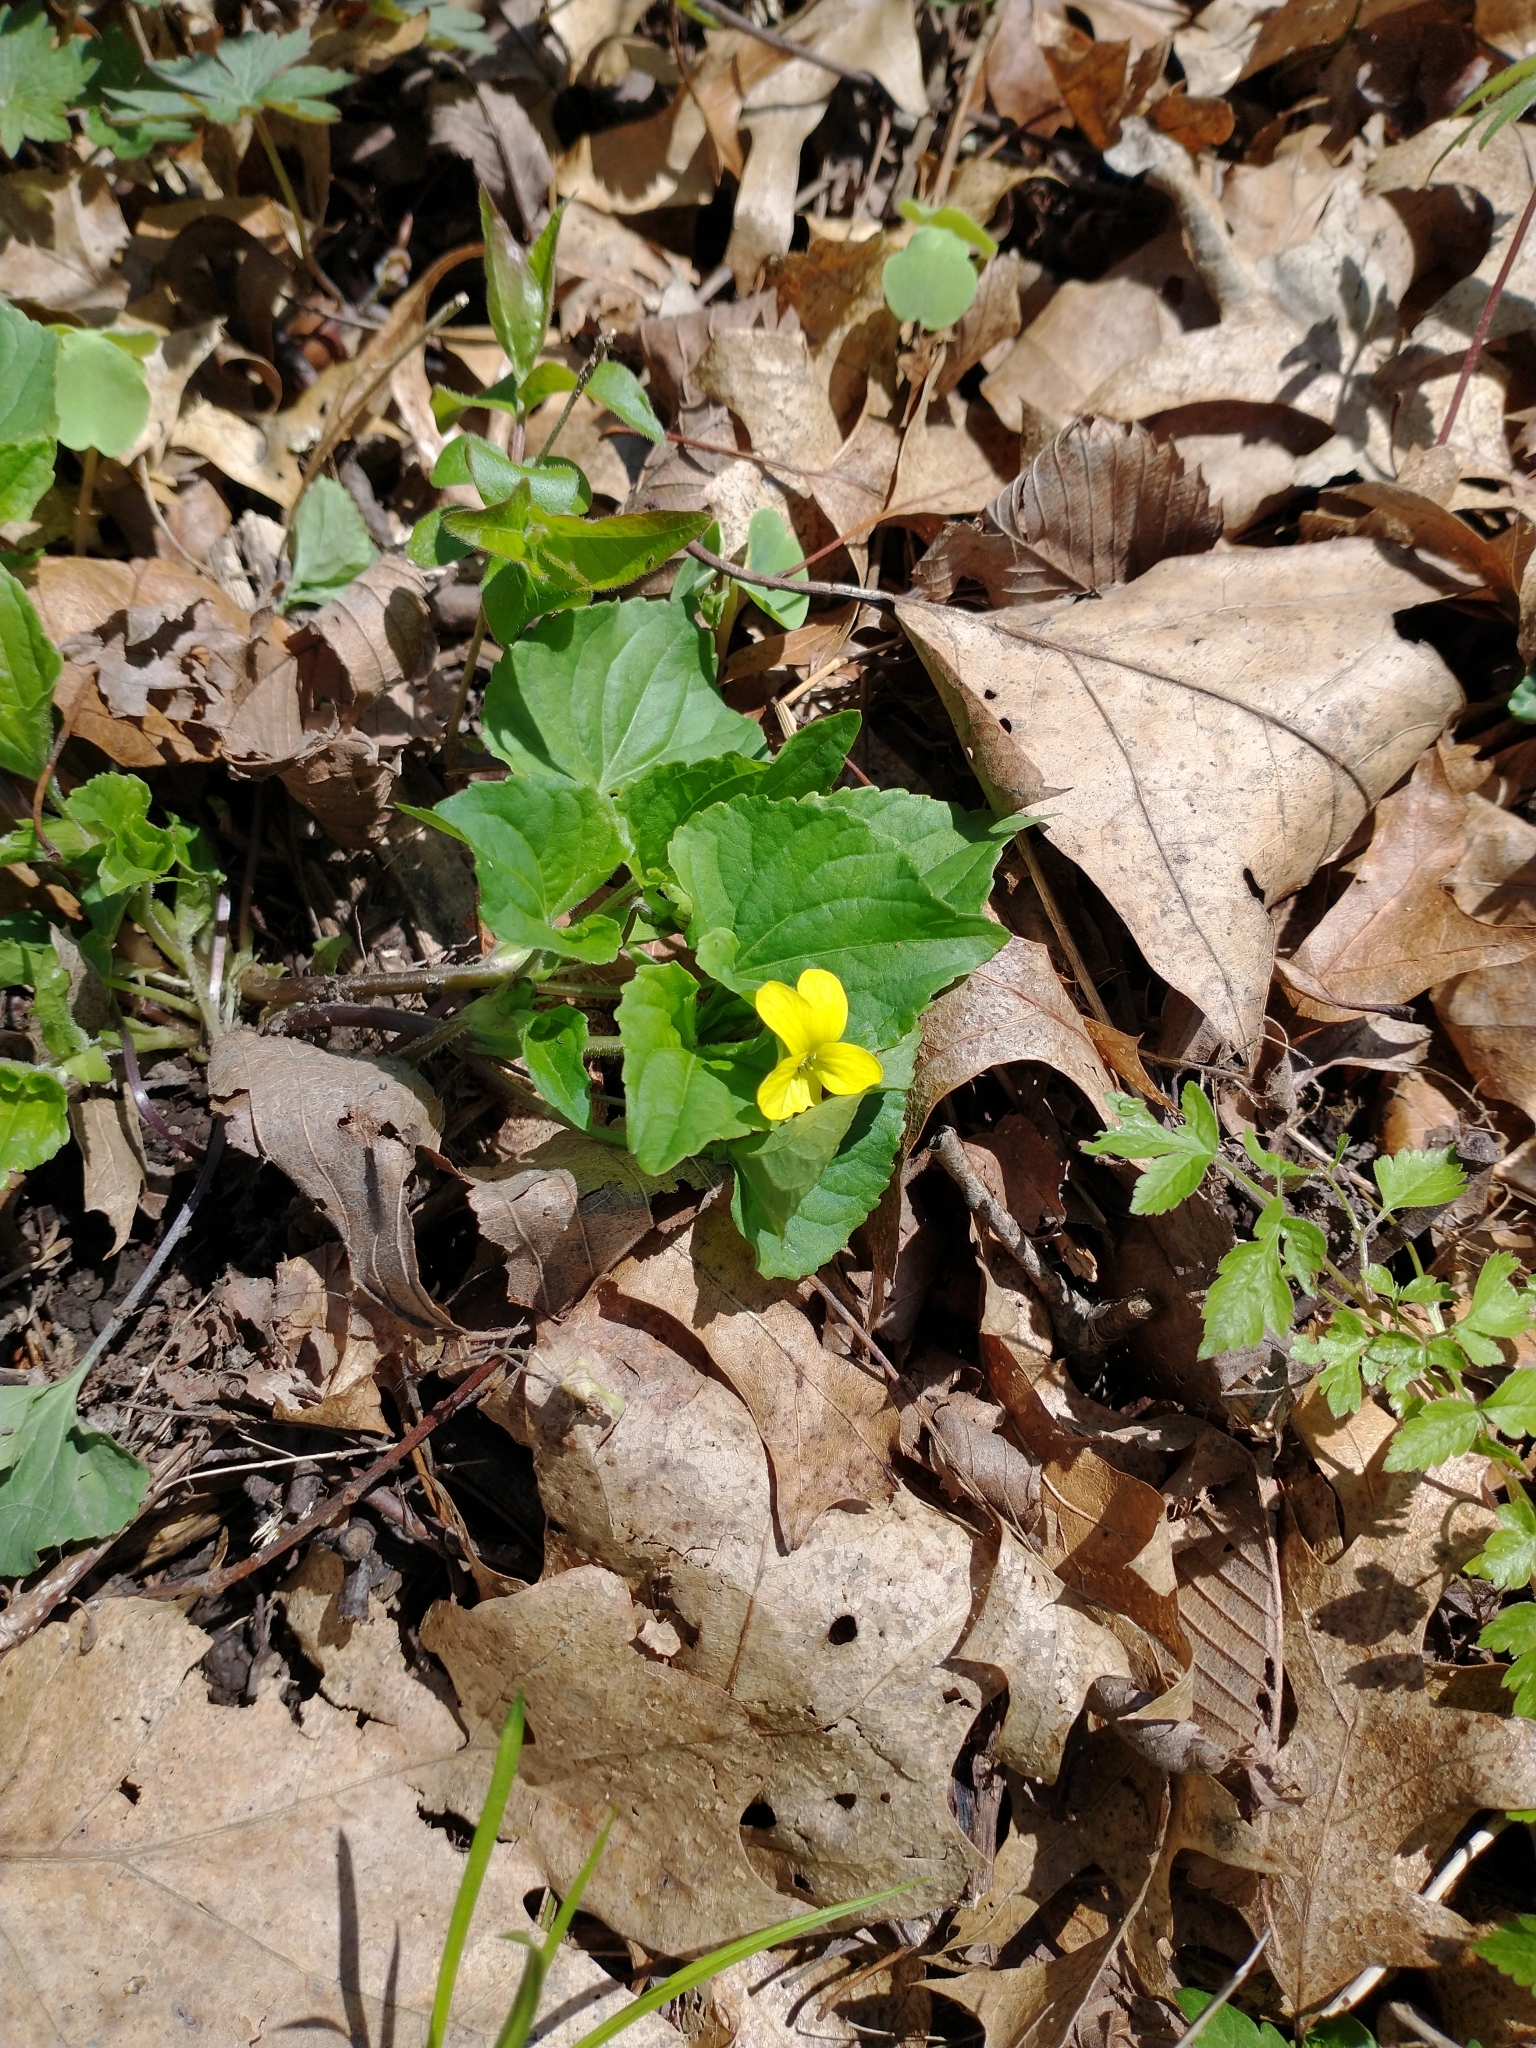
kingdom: Plantae
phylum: Tracheophyta
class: Magnoliopsida
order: Malpighiales
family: Violaceae
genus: Viola
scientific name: Viola eriocarpa
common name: Smooth yellow violet
